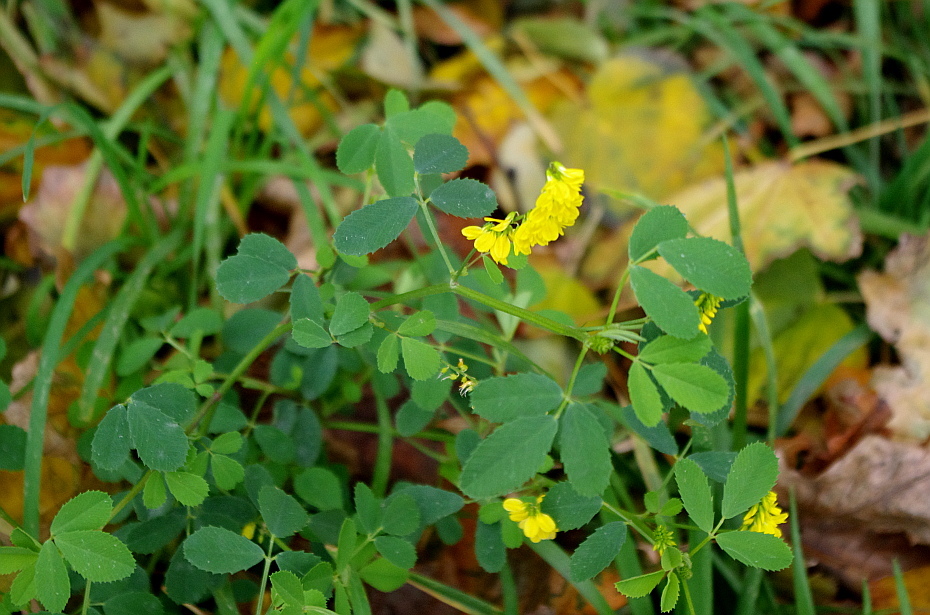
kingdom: Plantae
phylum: Tracheophyta
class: Magnoliopsida
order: Fabales
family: Fabaceae
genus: Melilotus
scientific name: Melilotus officinalis
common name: Sweetclover
